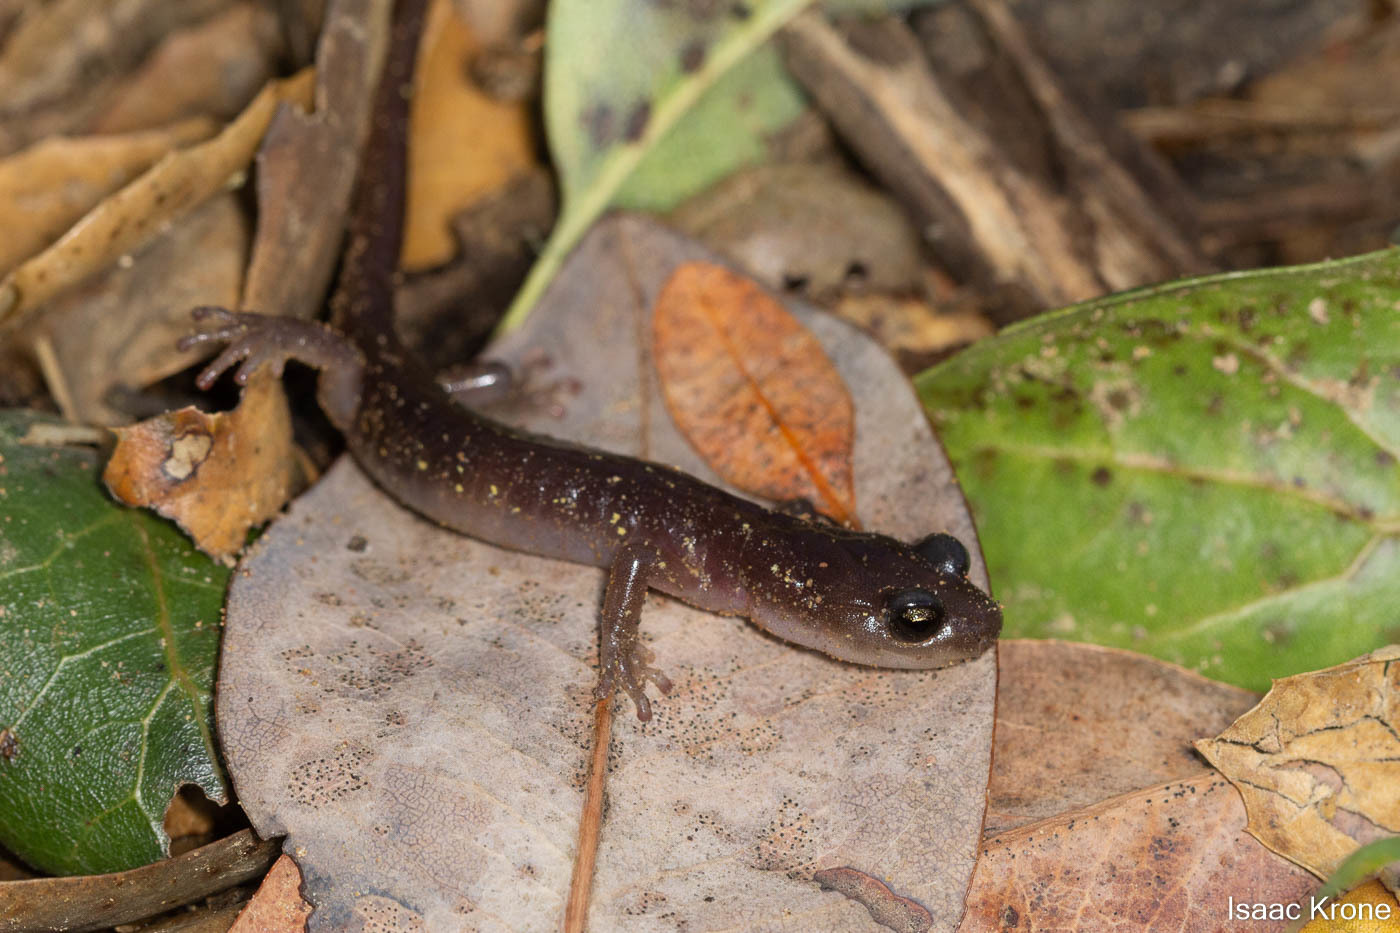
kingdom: Animalia
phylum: Chordata
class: Amphibia
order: Caudata
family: Plethodontidae
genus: Aneides
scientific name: Aneides lugubris
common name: Arboreal salamander
